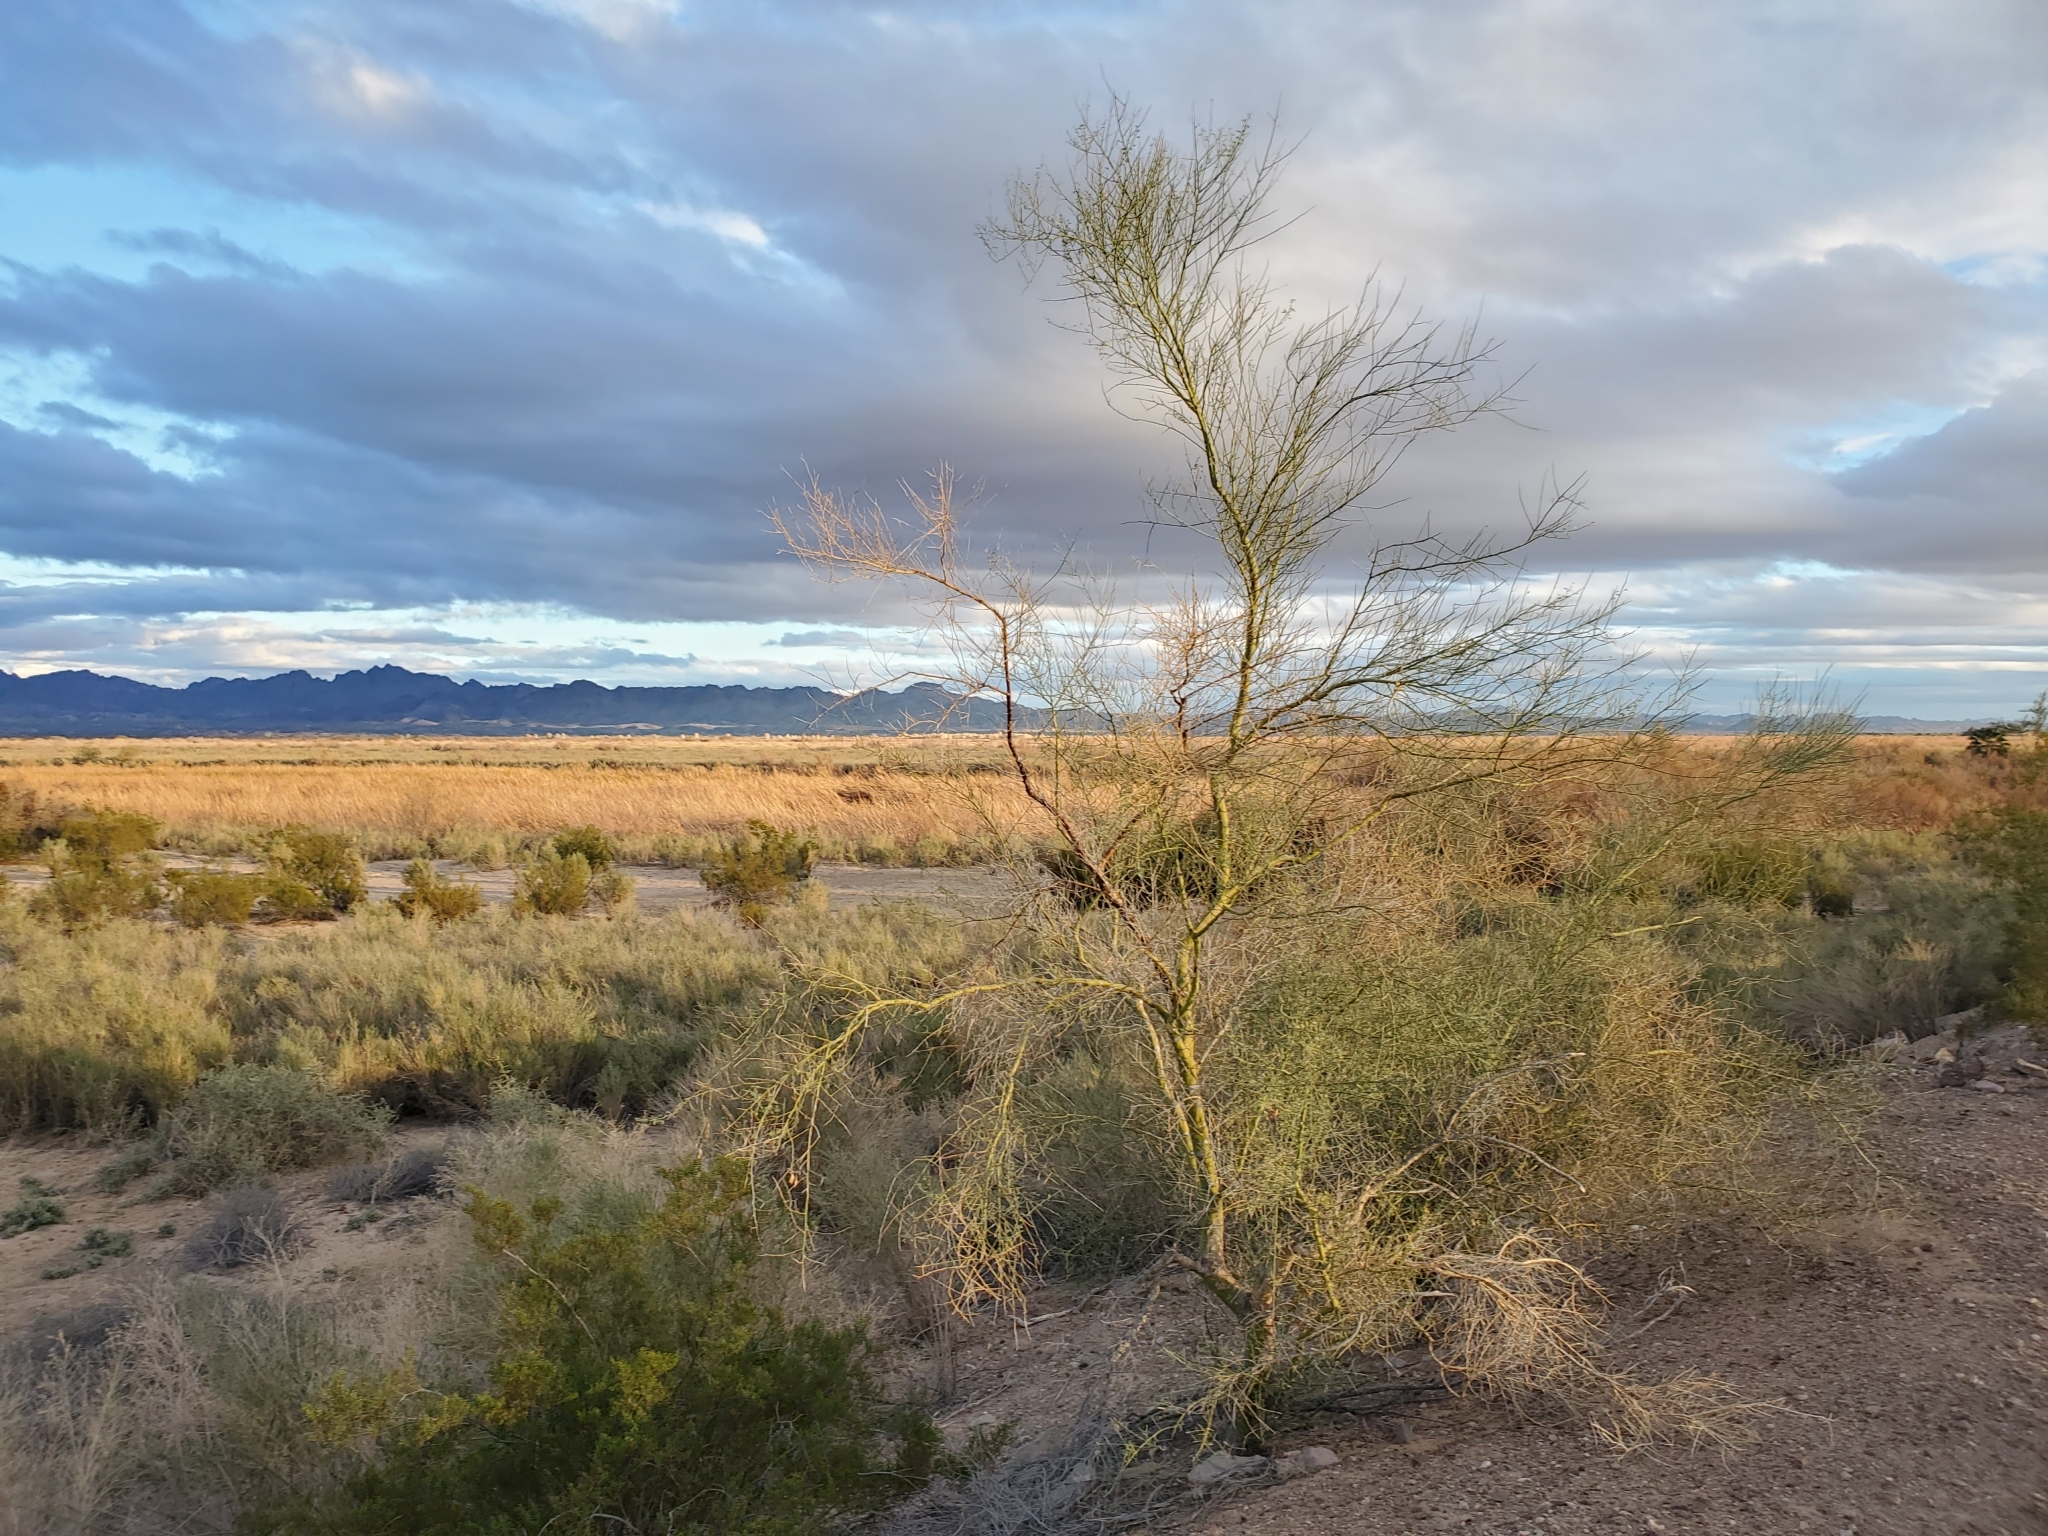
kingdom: Plantae
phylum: Tracheophyta
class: Magnoliopsida
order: Fabales
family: Fabaceae
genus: Parkinsonia
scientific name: Parkinsonia florida
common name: Blue paloverde
